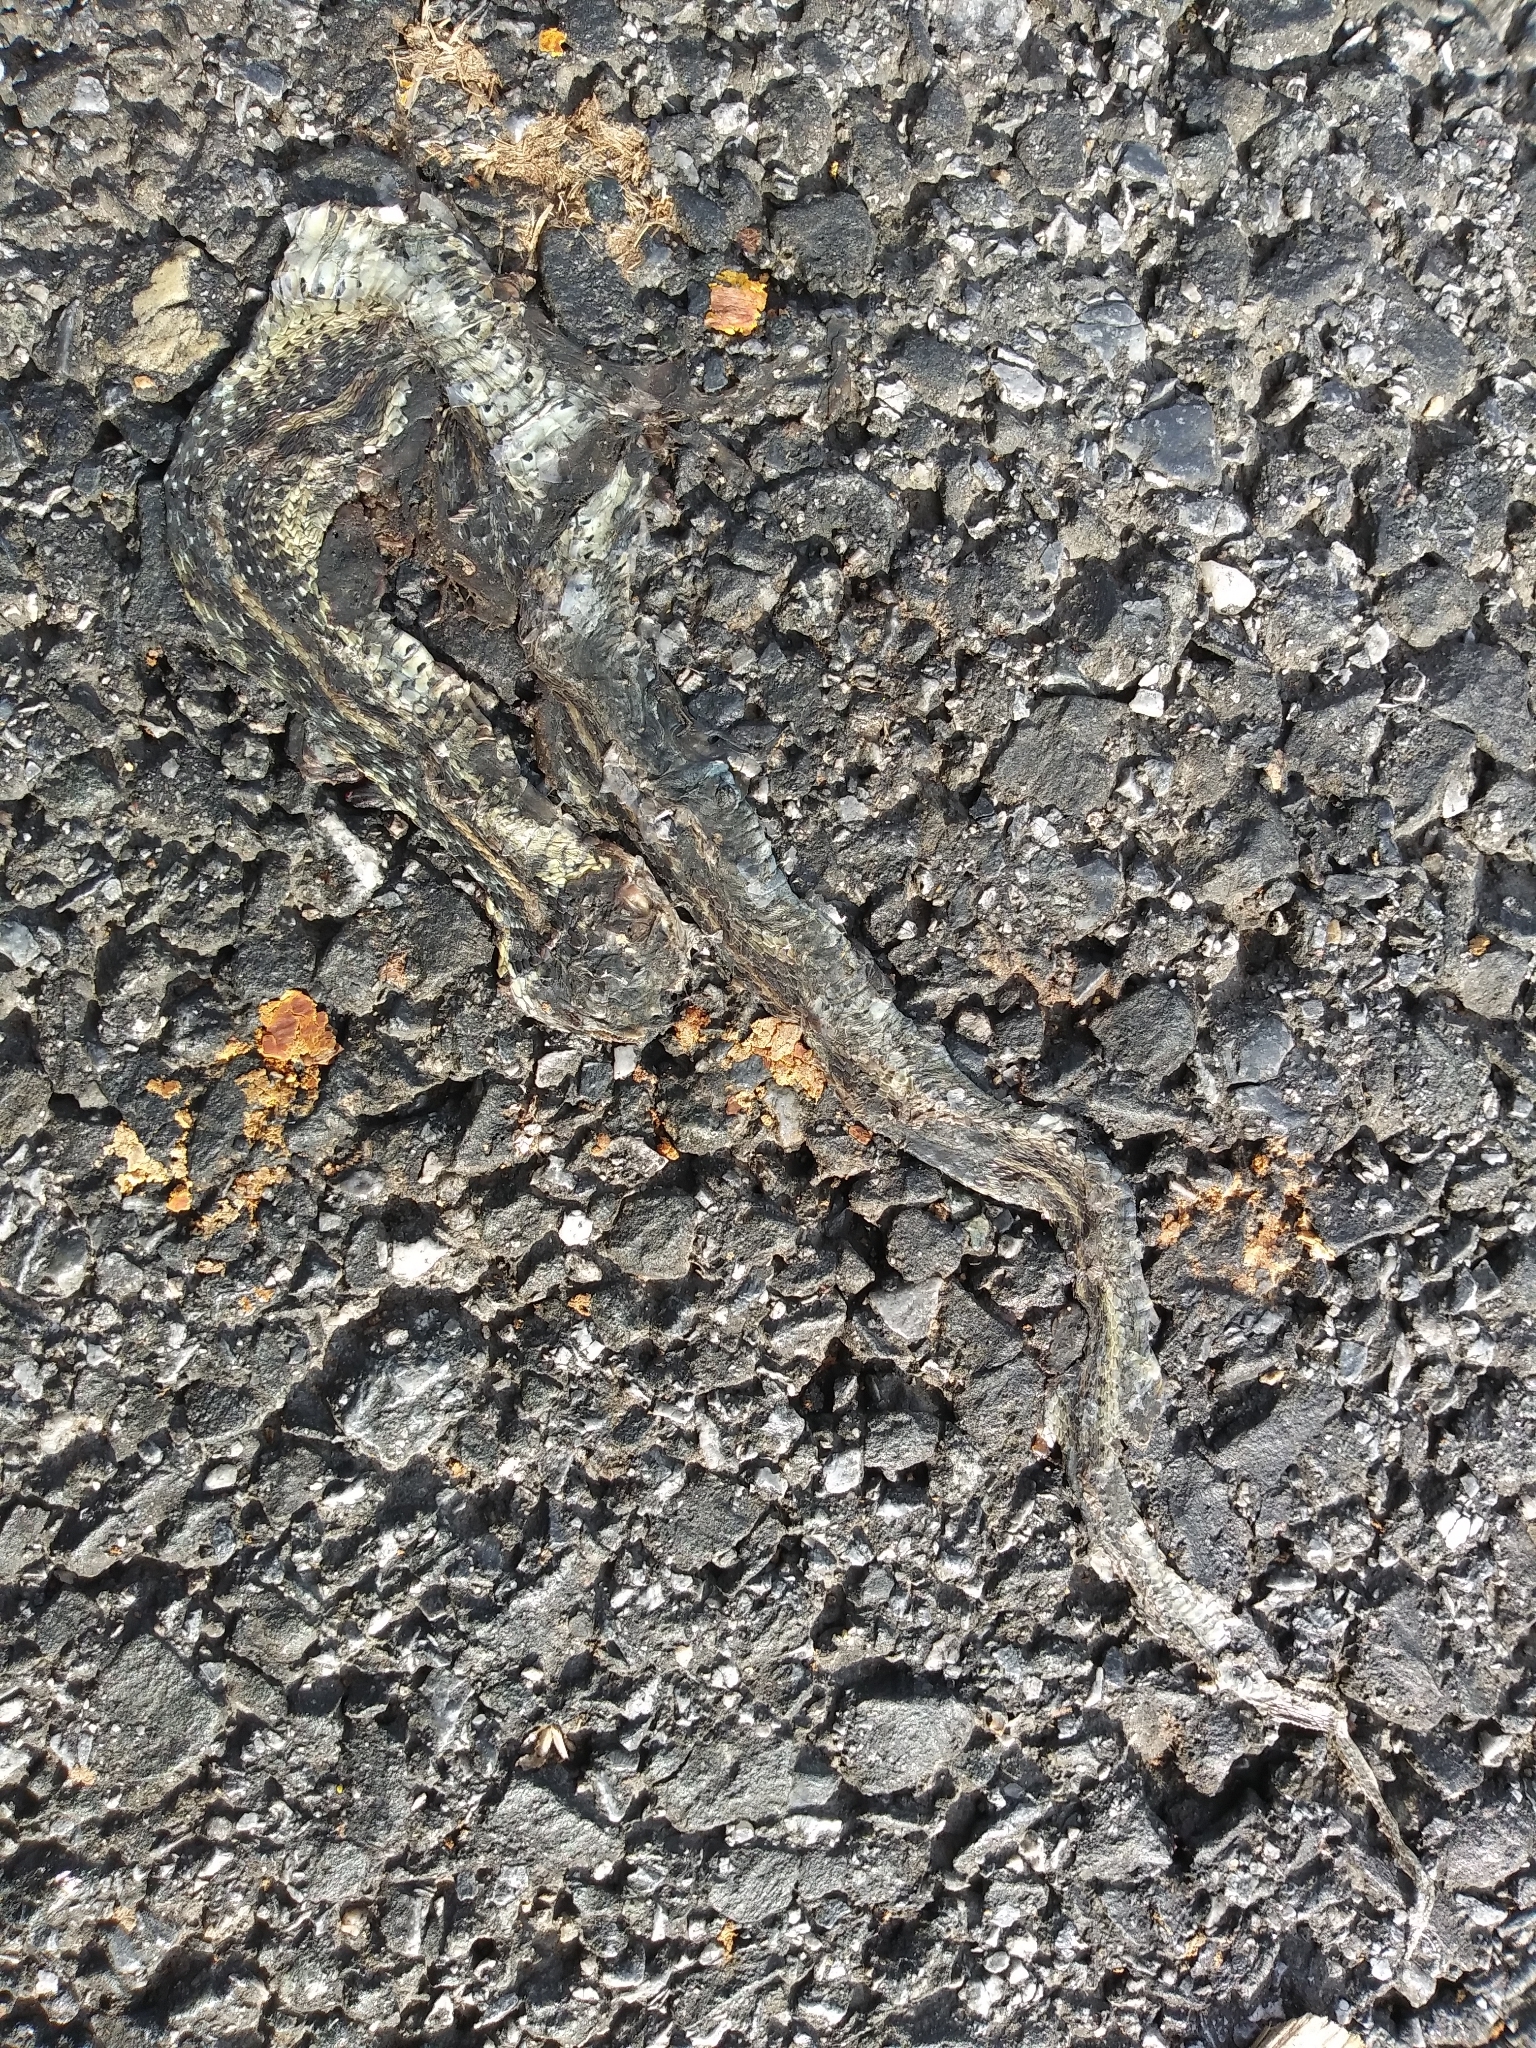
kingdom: Animalia
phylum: Chordata
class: Squamata
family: Colubridae
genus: Thamnophis
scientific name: Thamnophis sirtalis
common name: Common garter snake
